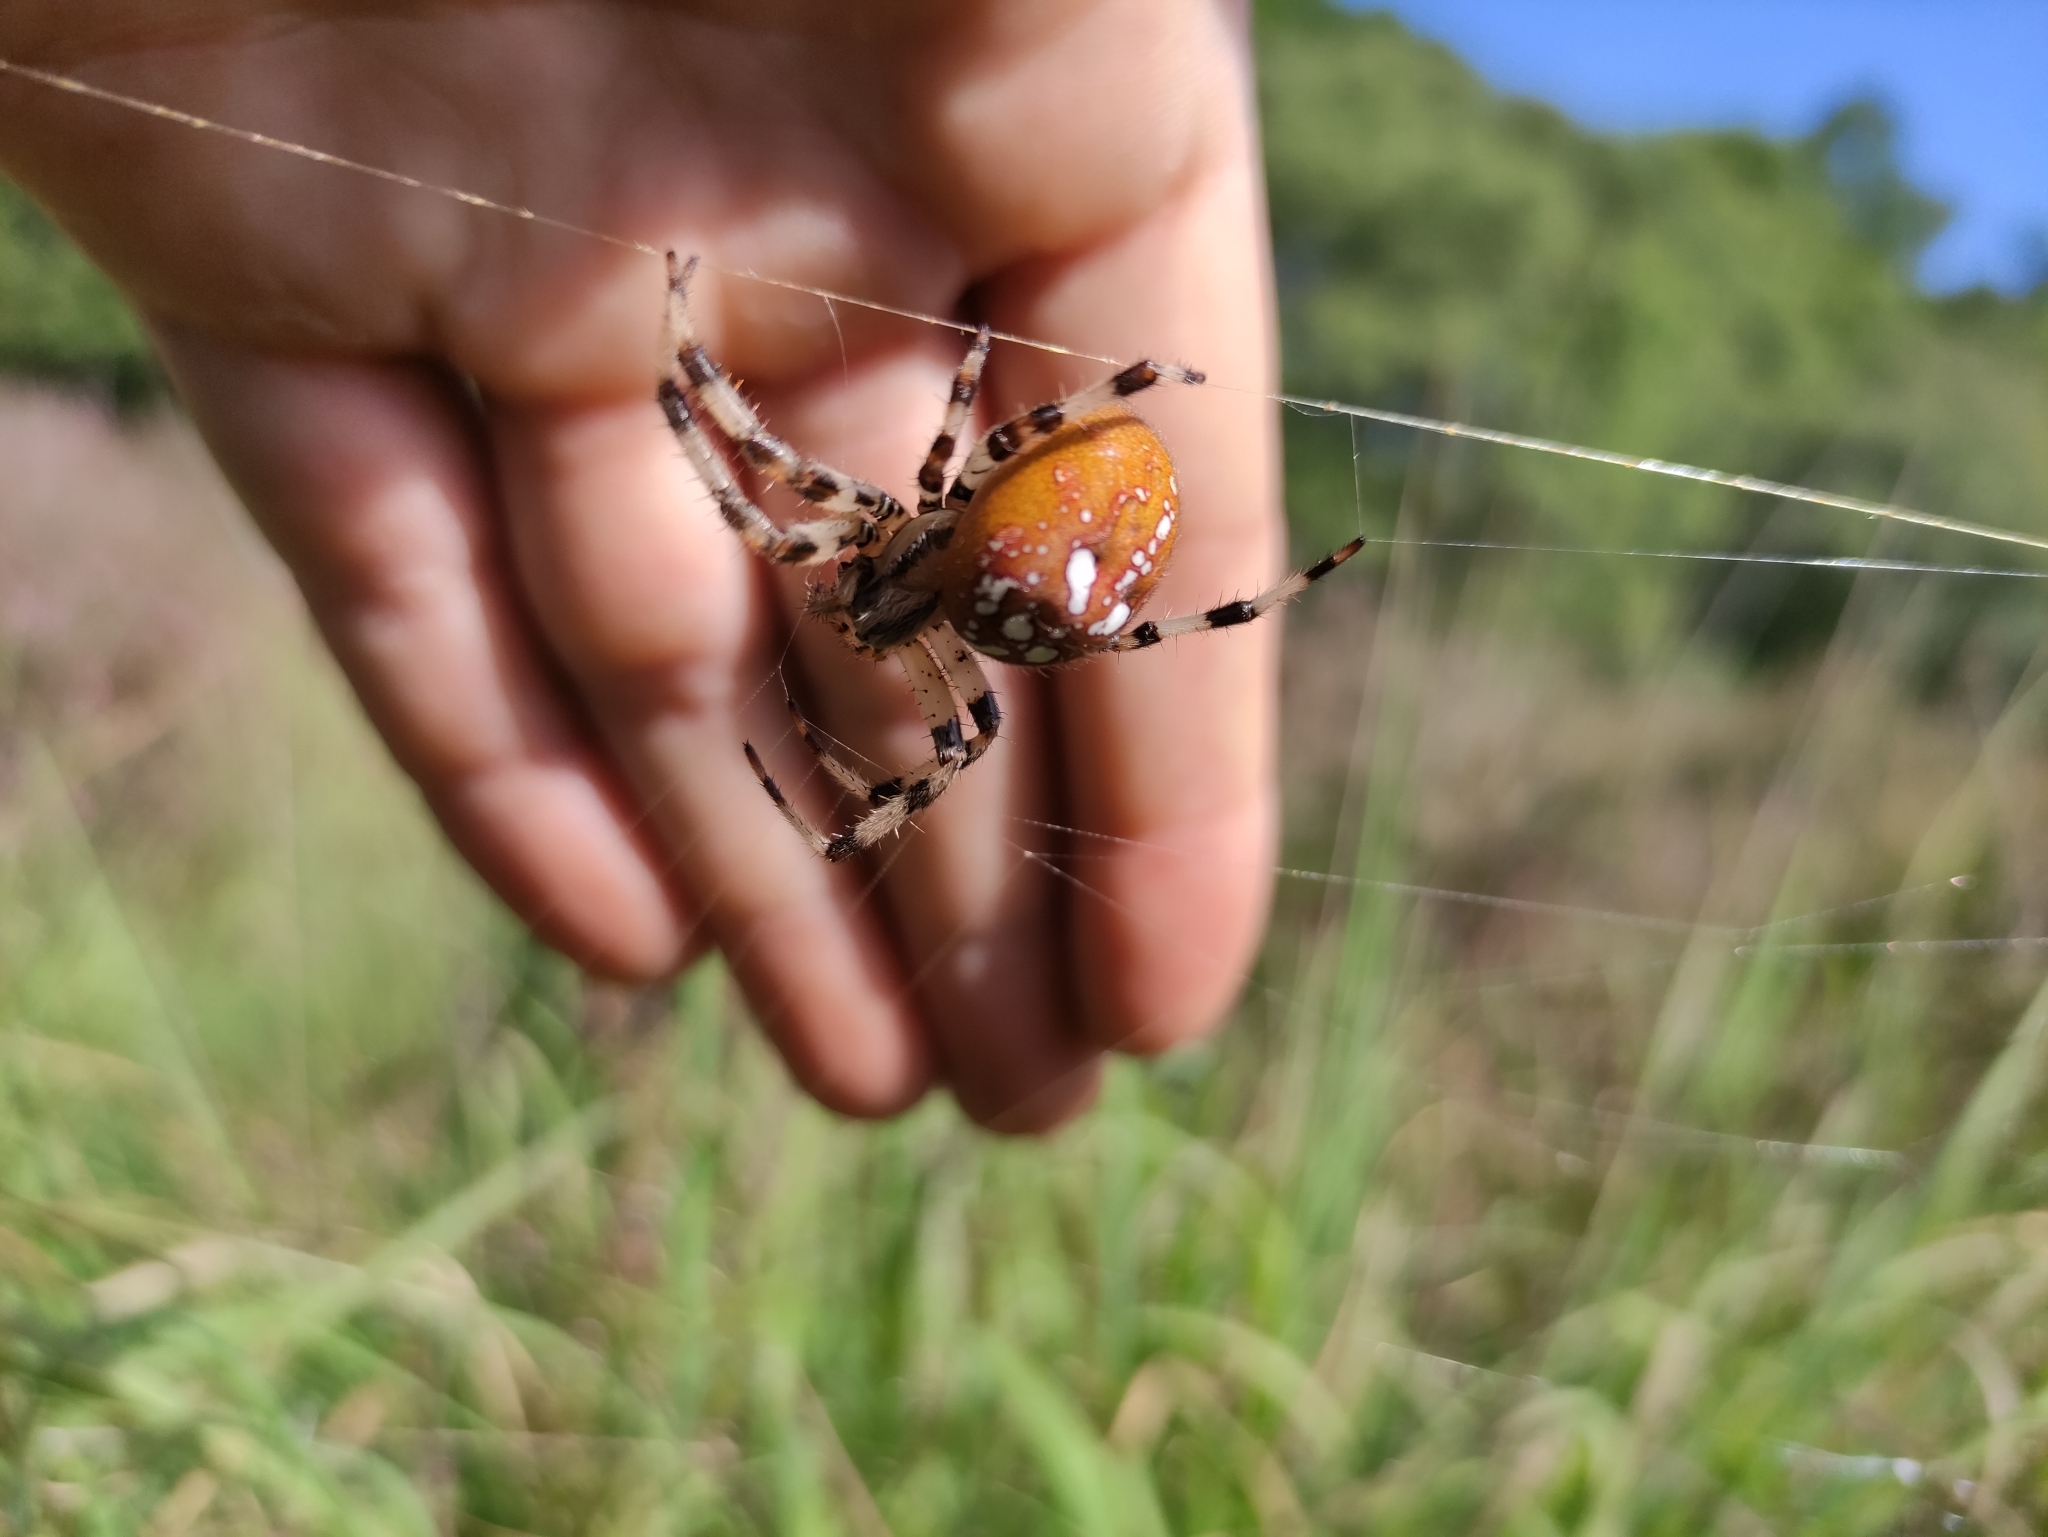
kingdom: Animalia
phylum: Arthropoda
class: Arachnida
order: Araneae
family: Araneidae
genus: Araneus
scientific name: Araneus quadratus
